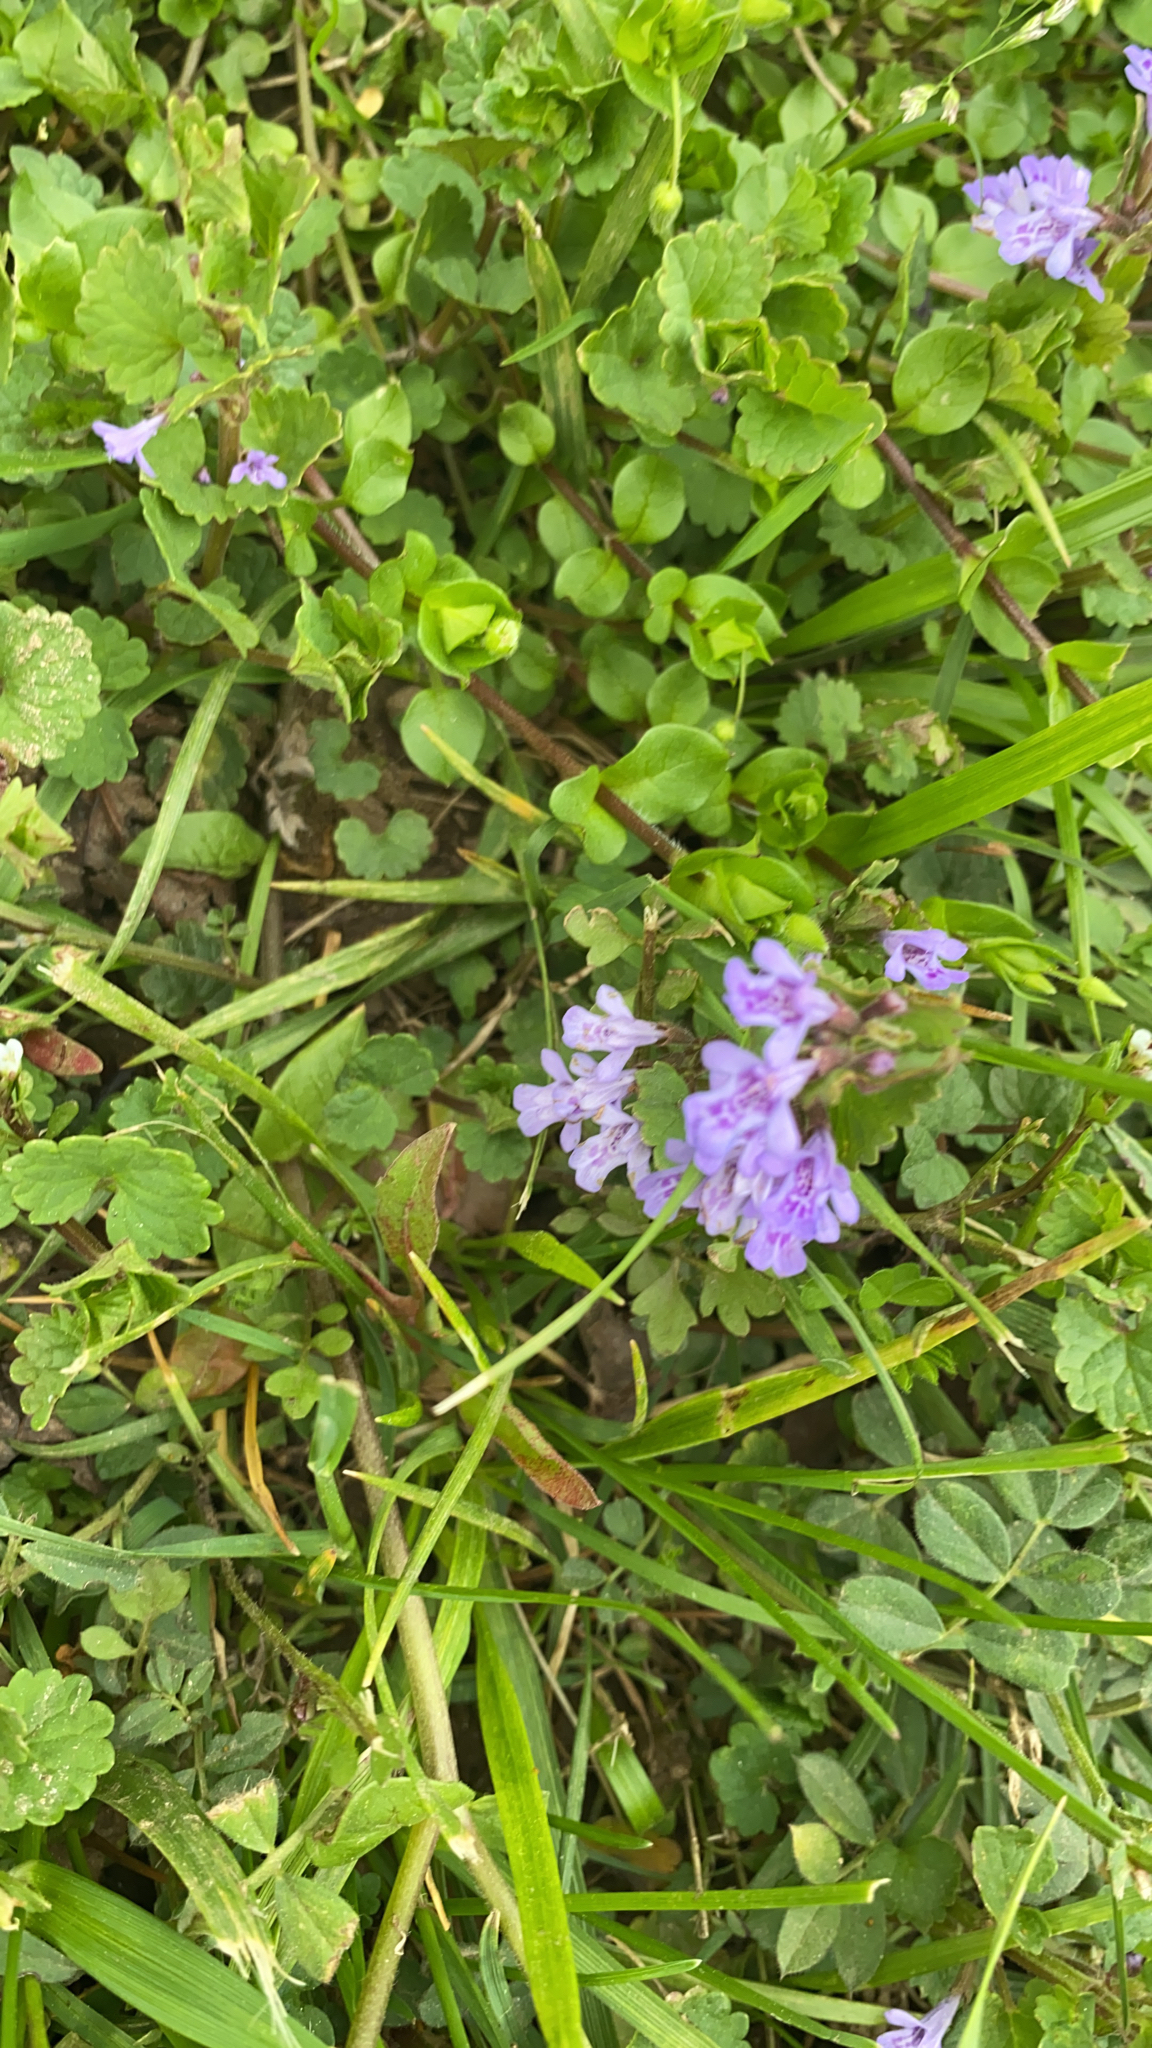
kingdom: Plantae
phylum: Tracheophyta
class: Magnoliopsida
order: Lamiales
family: Lamiaceae
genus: Glechoma
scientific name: Glechoma hederacea
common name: Ground ivy
